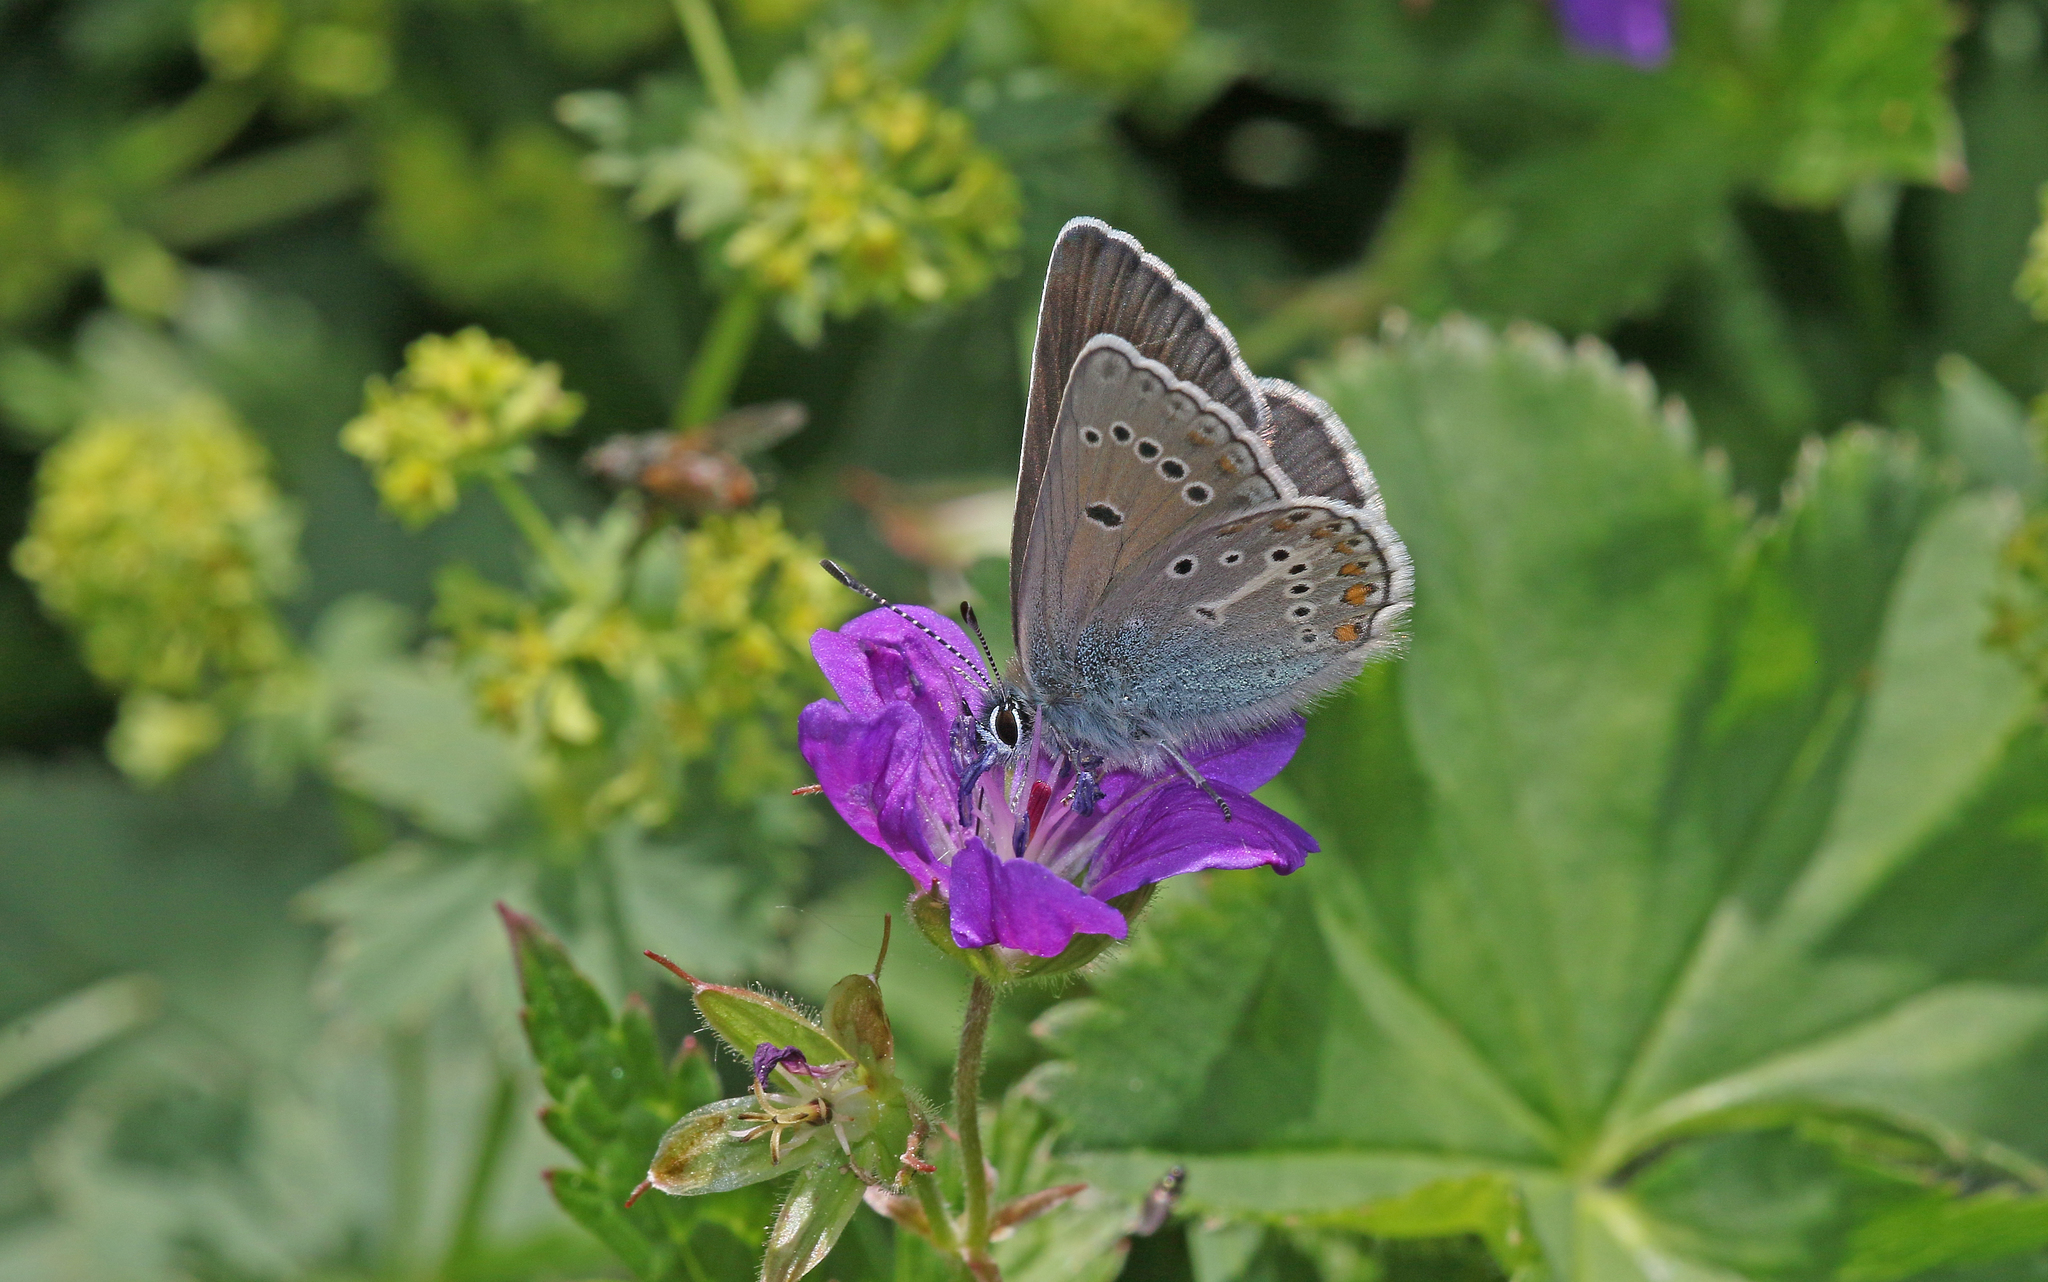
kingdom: Animalia
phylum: Arthropoda
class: Insecta
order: Lepidoptera
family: Lycaenidae
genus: Eumedonia
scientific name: Eumedonia eumedon
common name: Geranium argus
